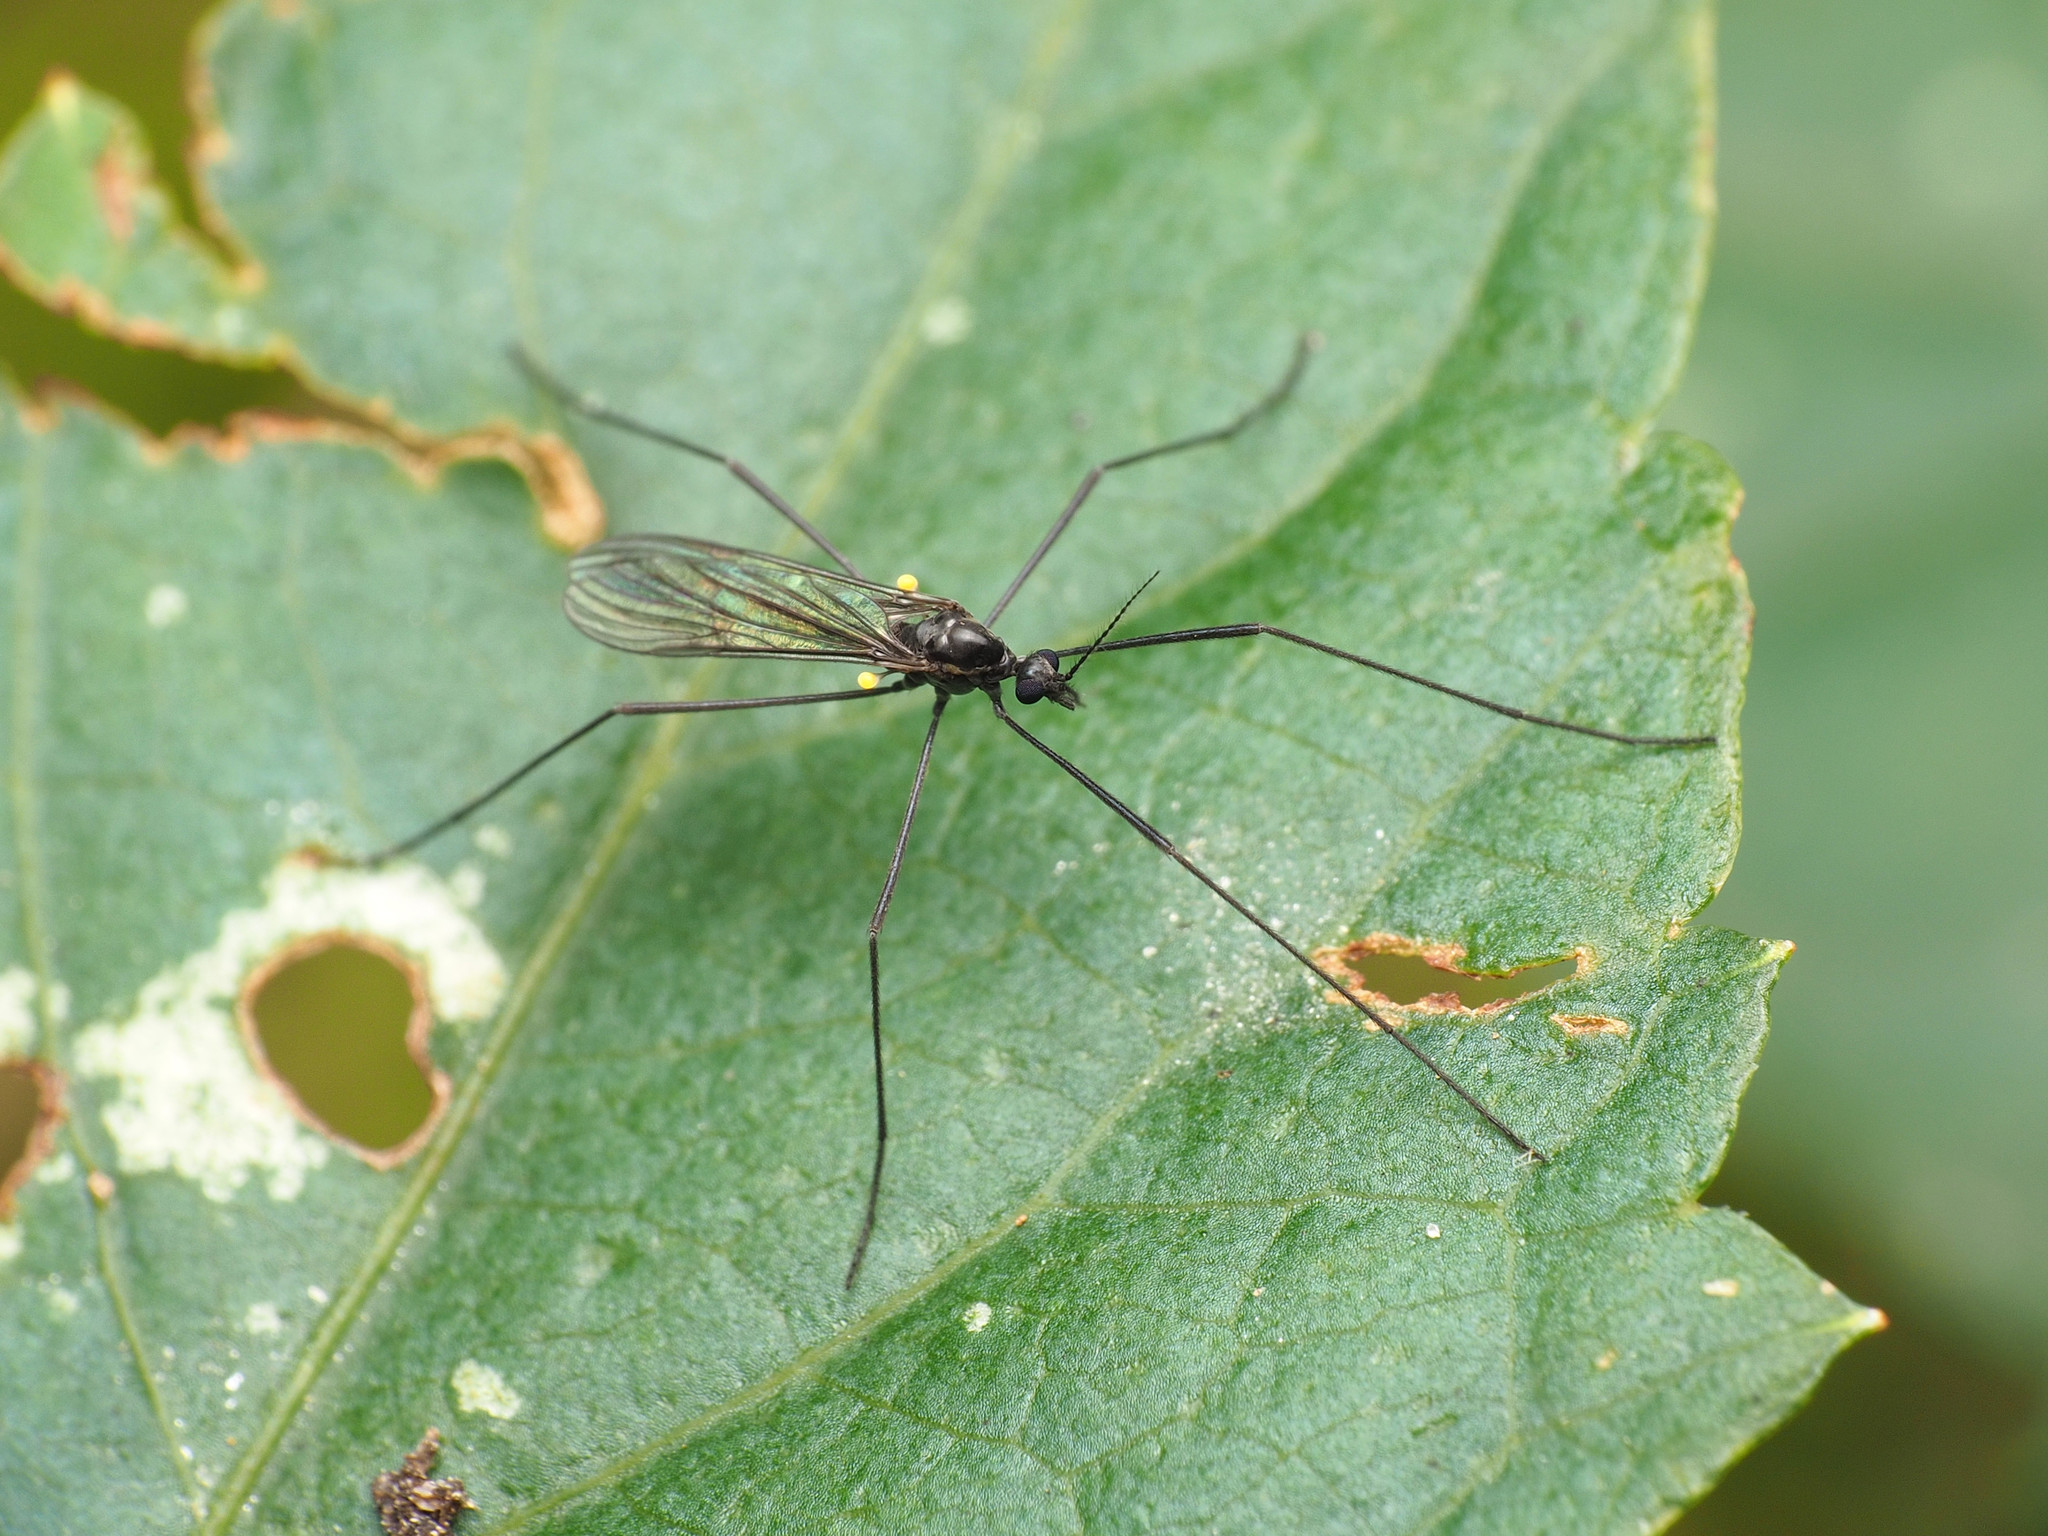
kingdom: Animalia
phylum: Arthropoda
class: Insecta
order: Diptera
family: Limoniidae
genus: Gnophomyia
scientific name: Gnophomyia tristissima
